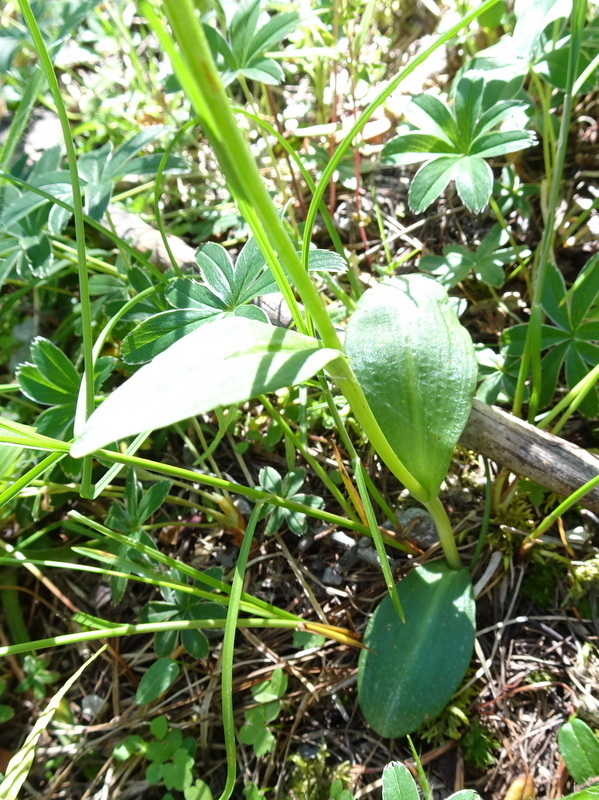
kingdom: Plantae
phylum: Tracheophyta
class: Liliopsida
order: Asparagales
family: Orchidaceae
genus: Dactylorhiza
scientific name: Dactylorhiza viridis
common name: Longbract frog orchid
